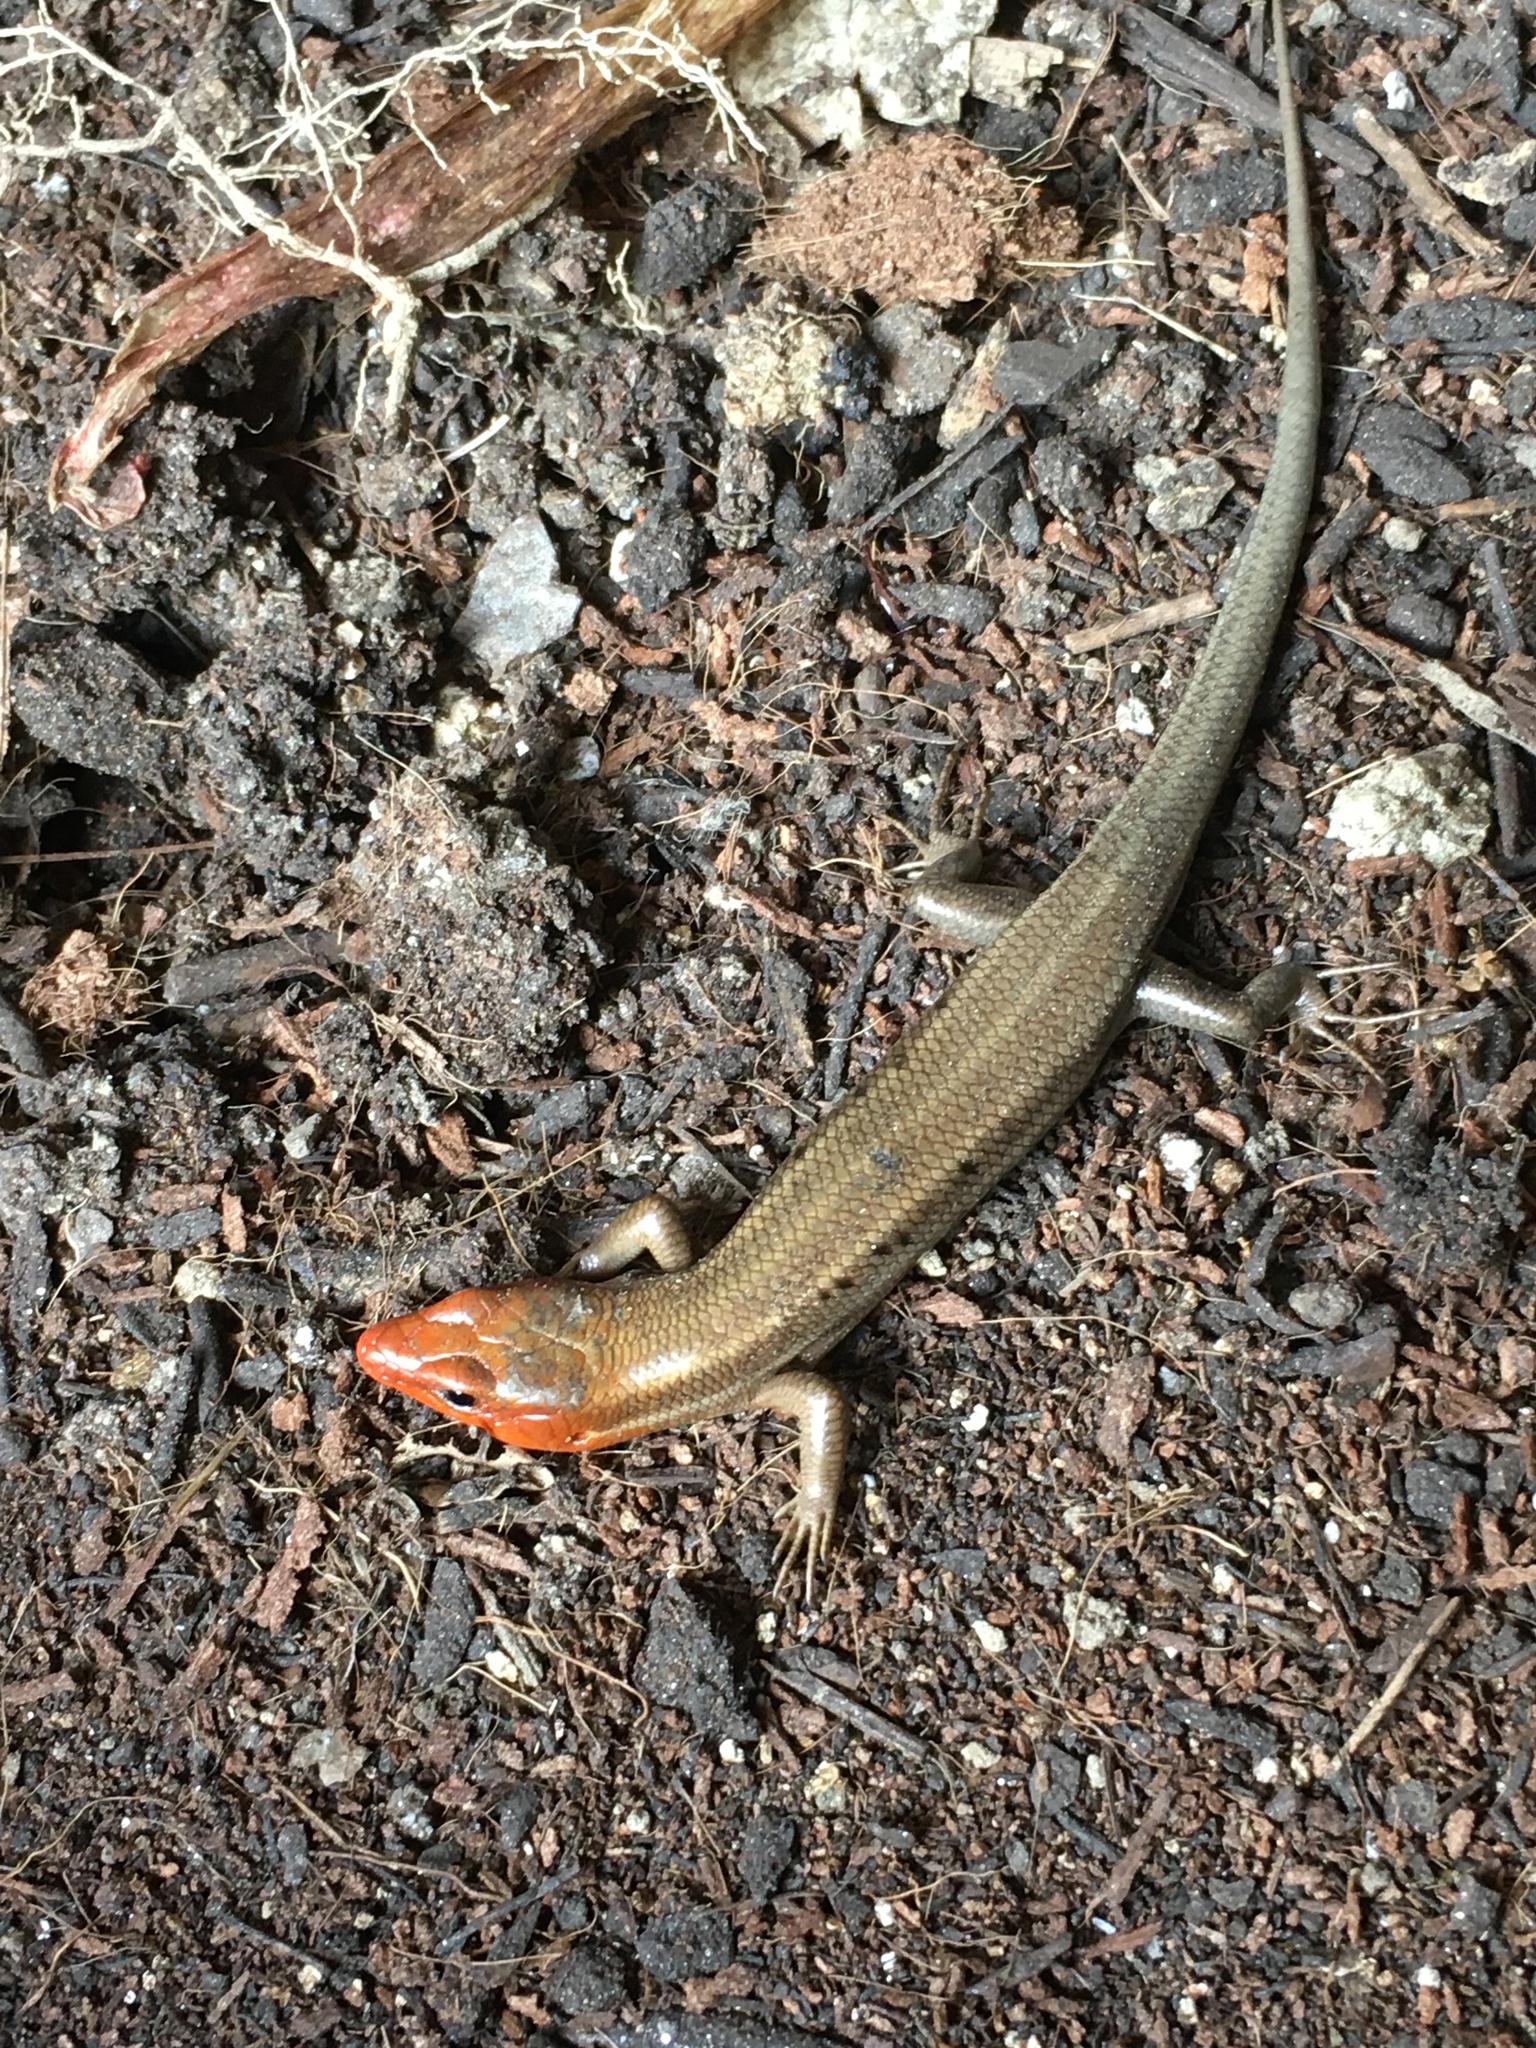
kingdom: Animalia
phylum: Chordata
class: Squamata
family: Scincidae
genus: Plestiodon
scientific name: Plestiodon fasciatus
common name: Five-lined skink
